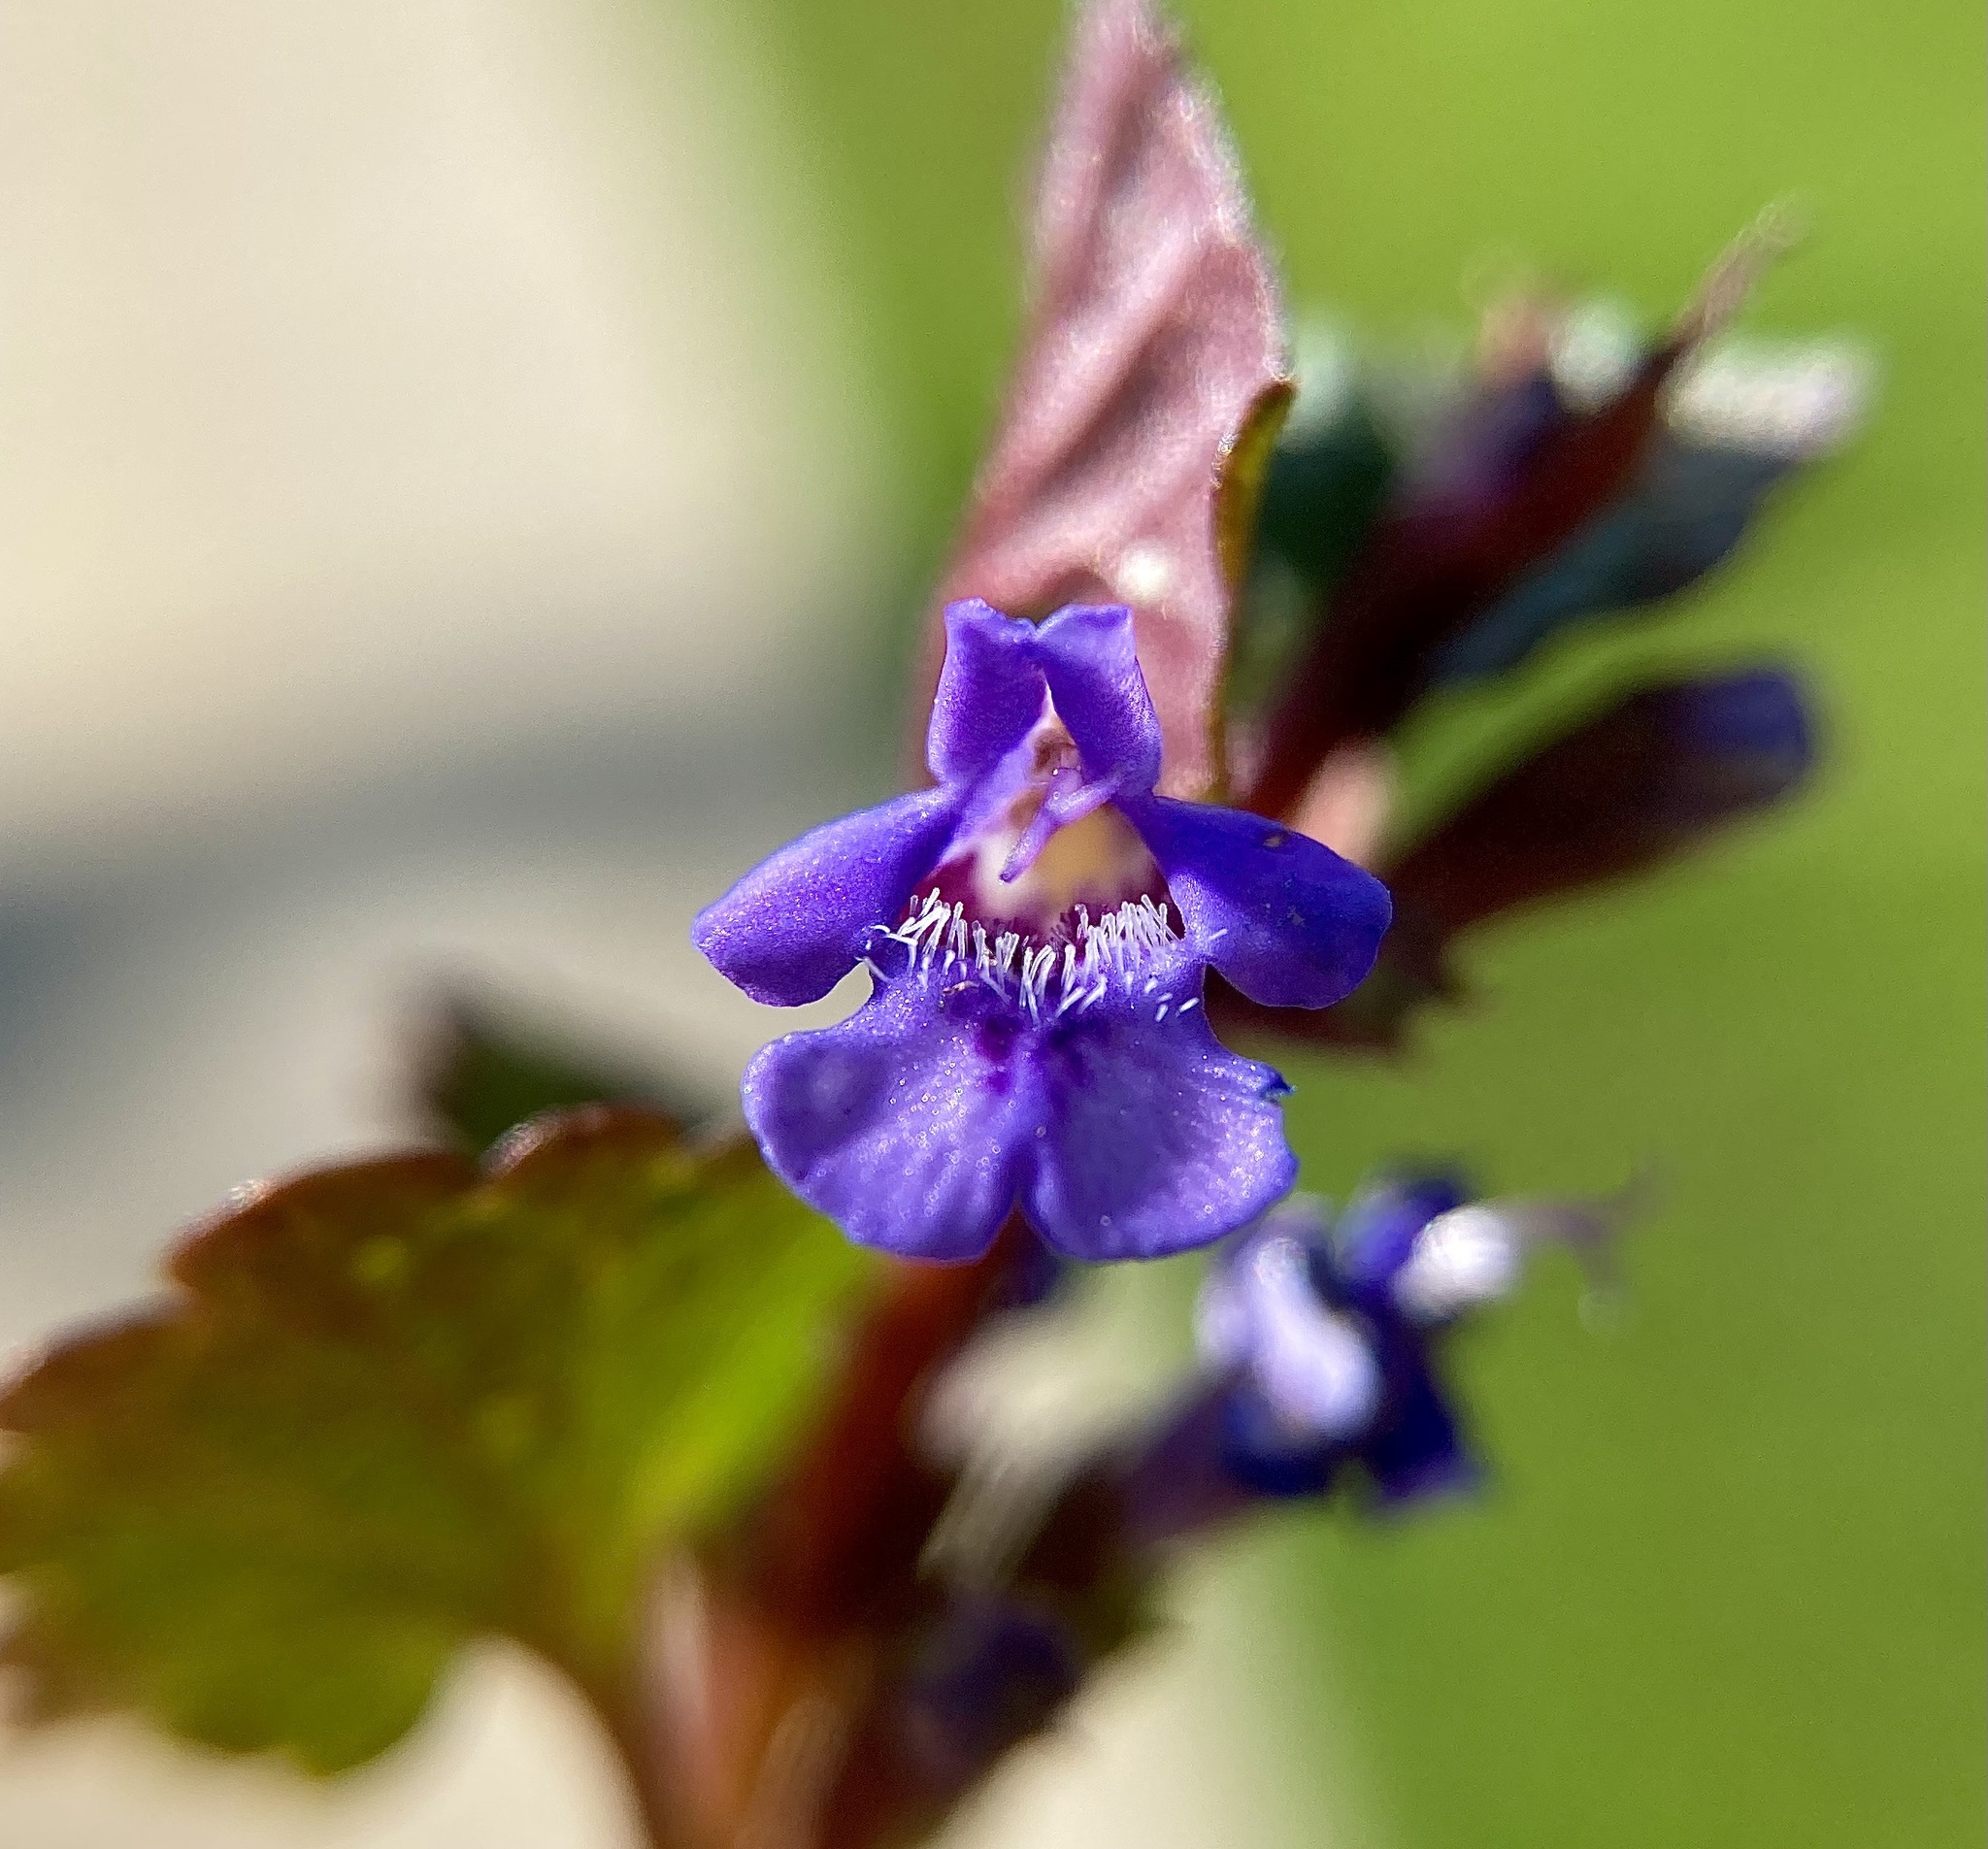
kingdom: Plantae
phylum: Tracheophyta
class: Magnoliopsida
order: Lamiales
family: Lamiaceae
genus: Glechoma
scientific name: Glechoma hederacea
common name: Ground ivy
